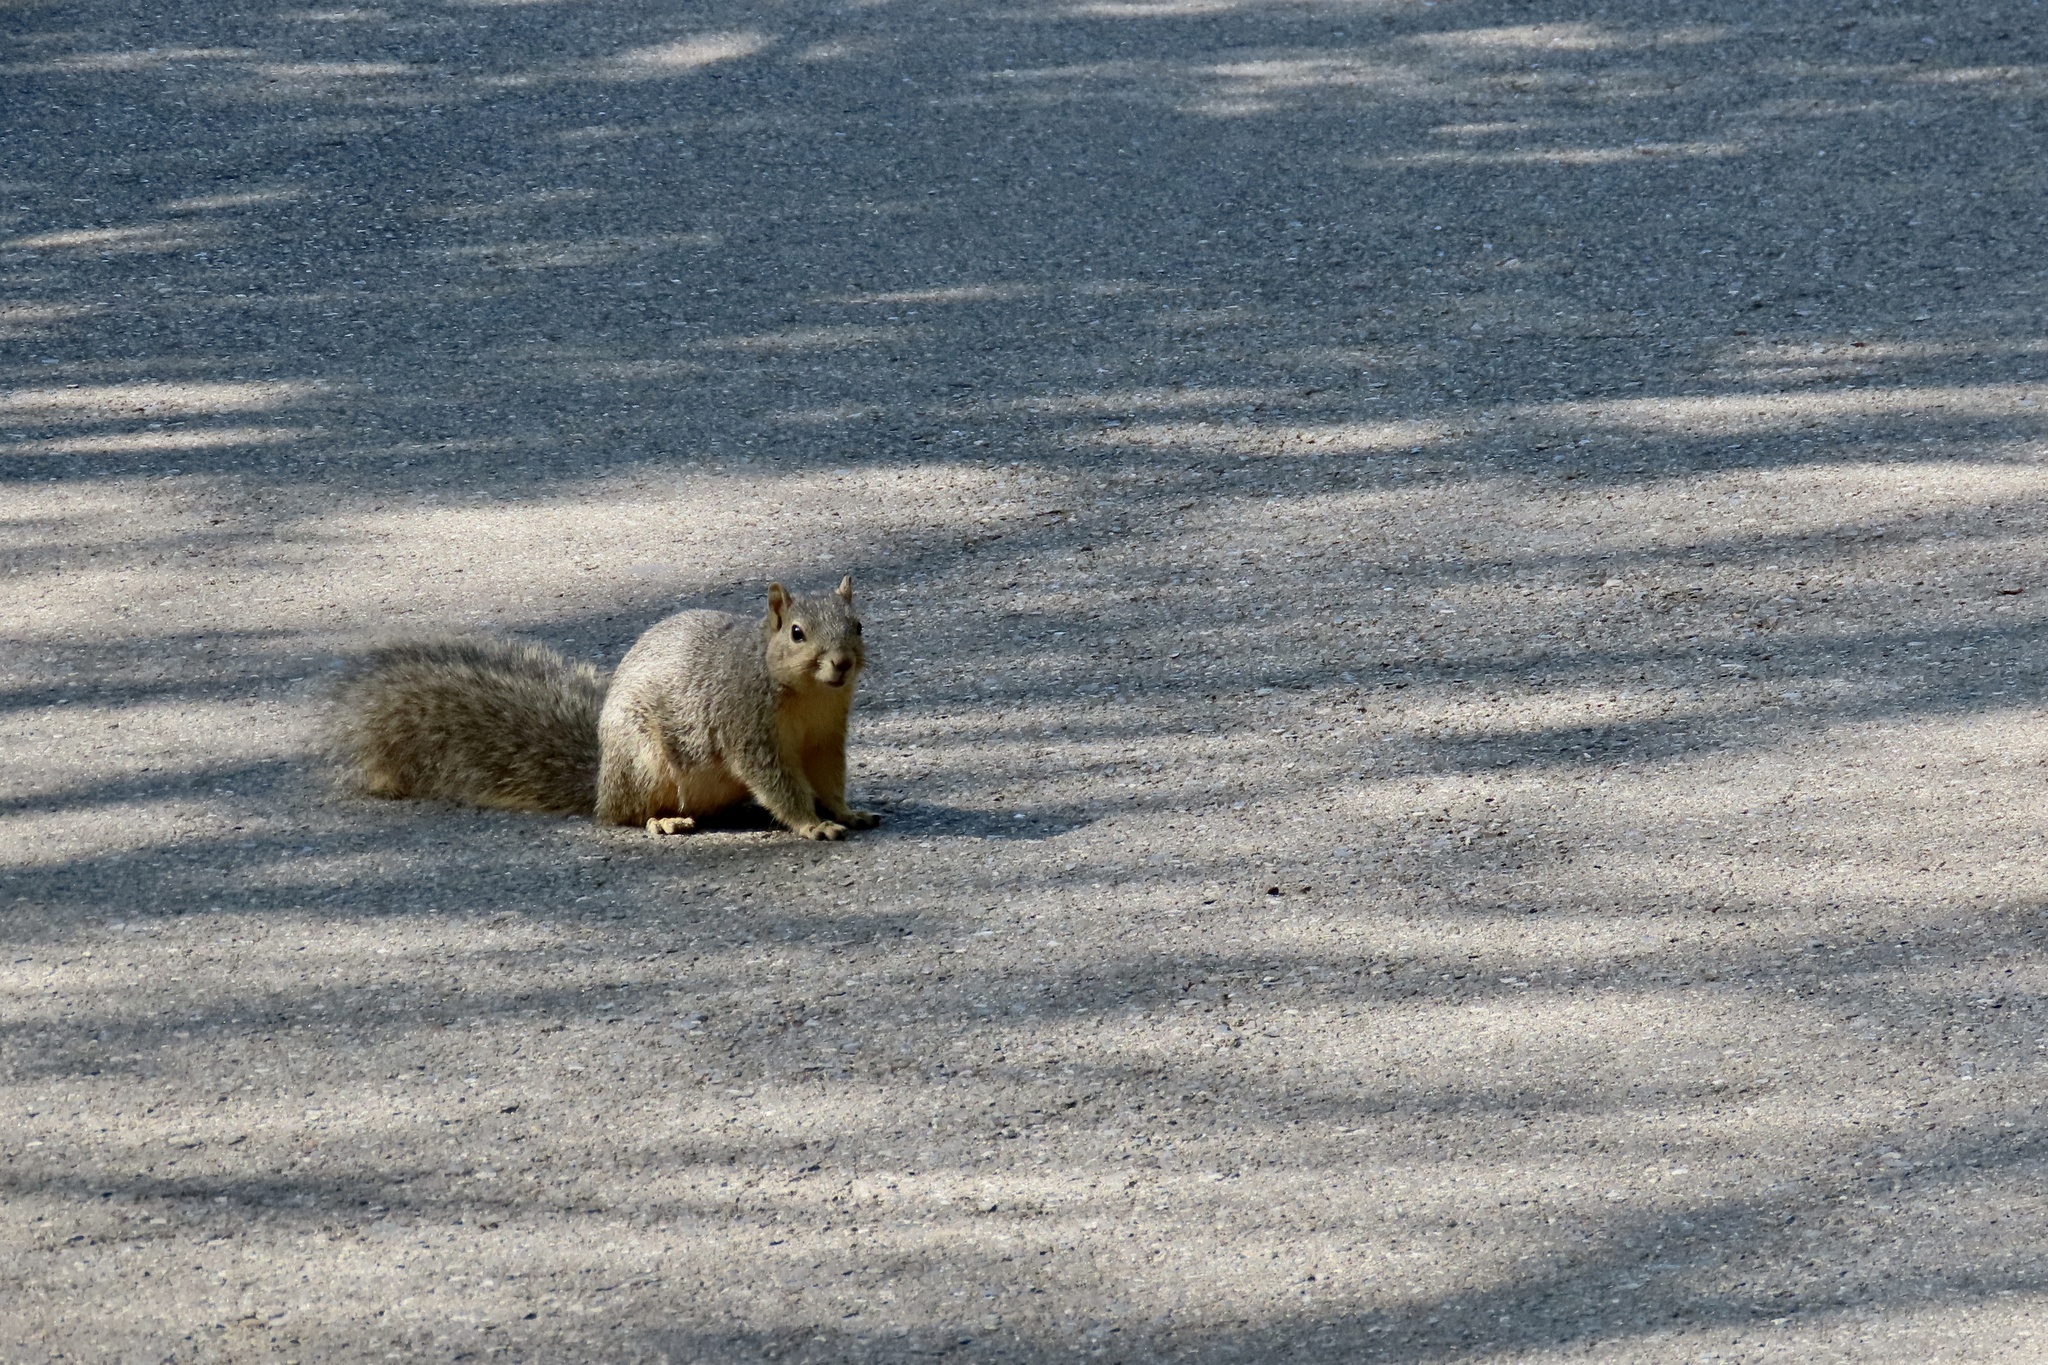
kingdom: Animalia
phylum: Chordata
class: Mammalia
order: Rodentia
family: Sciuridae
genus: Sciurus
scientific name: Sciurus niger
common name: Fox squirrel
